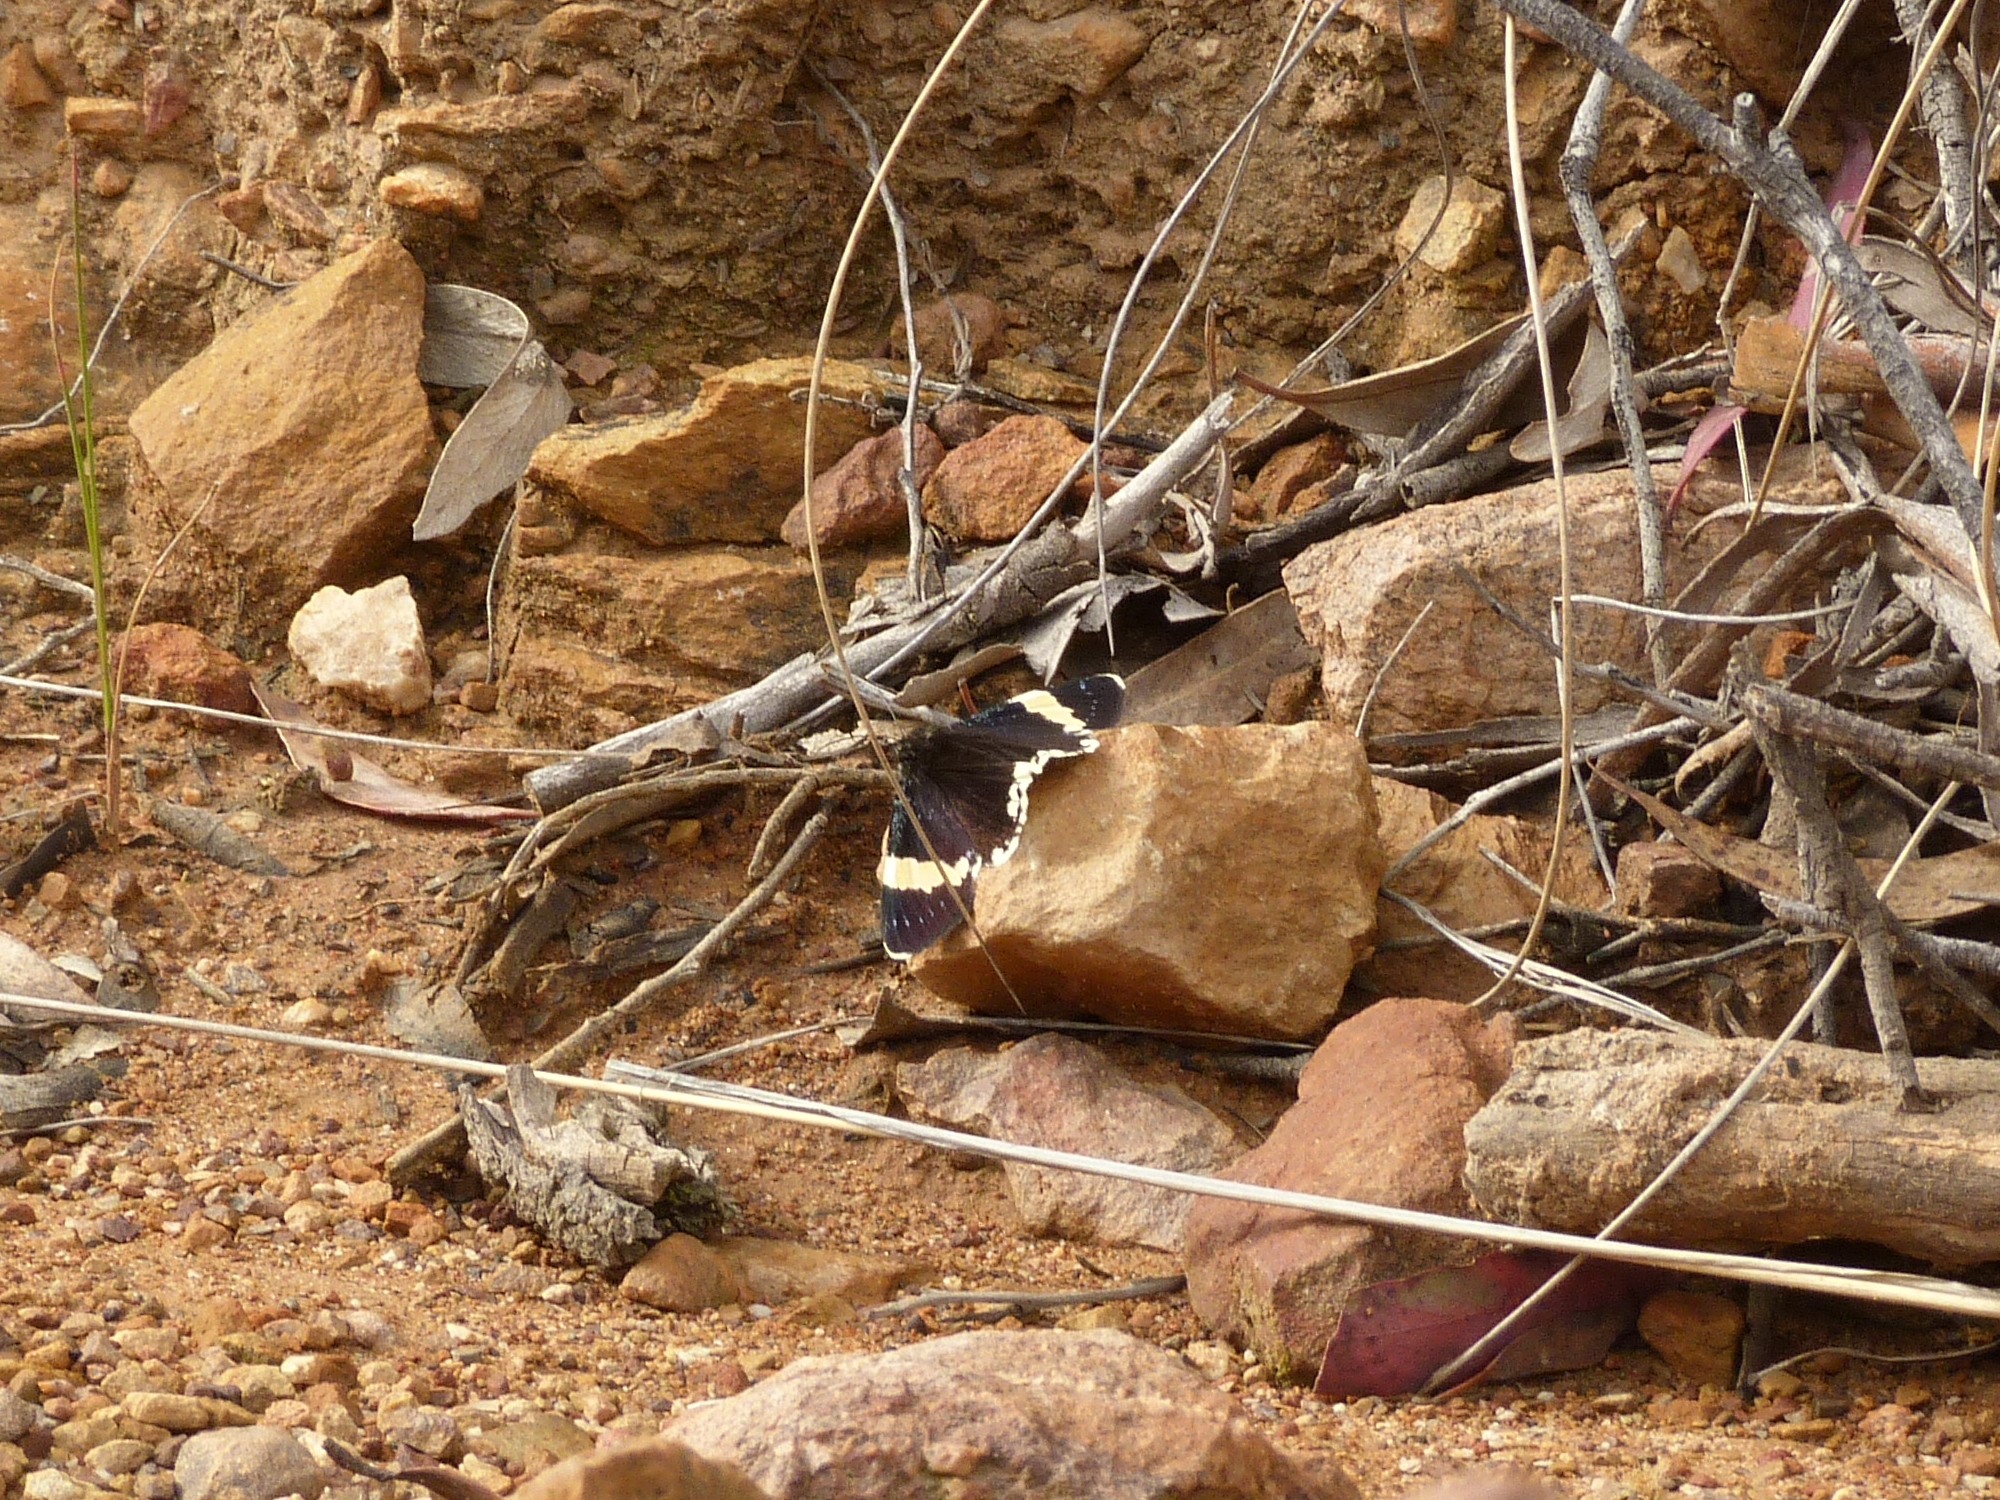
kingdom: Animalia
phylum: Arthropoda
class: Insecta
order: Lepidoptera
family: Noctuidae
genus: Eutrichopidia
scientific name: Eutrichopidia latinus
